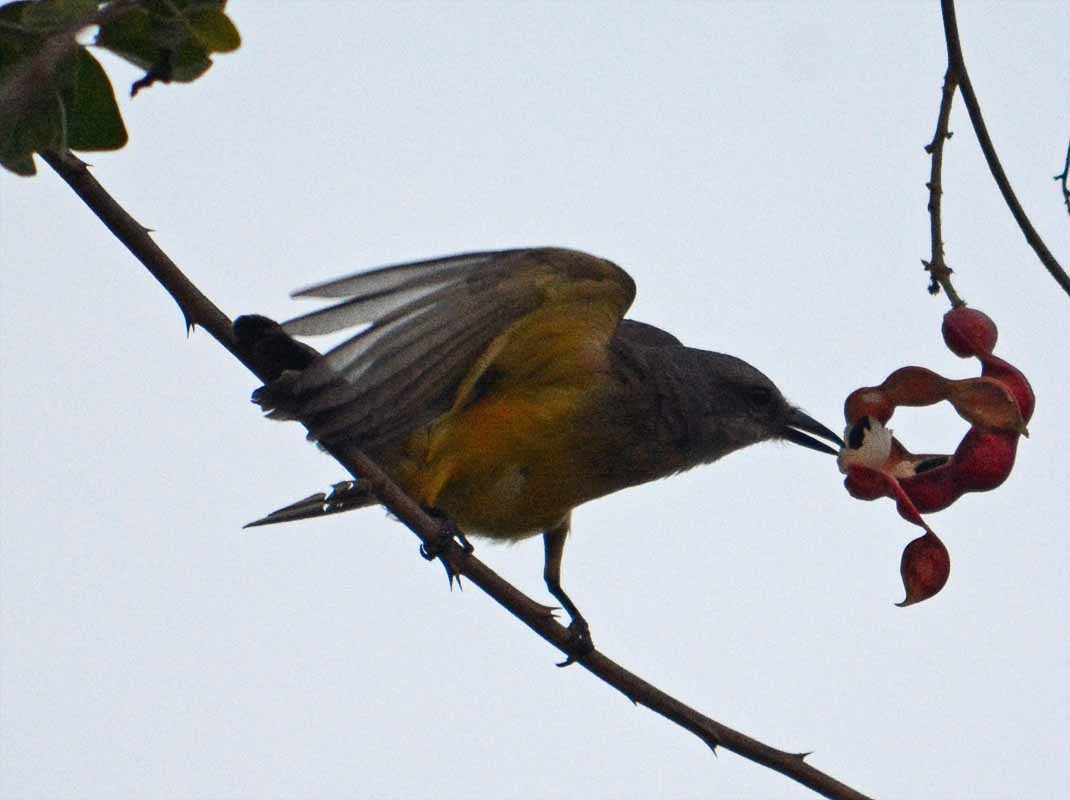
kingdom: Animalia
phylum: Chordata
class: Aves
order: Passeriformes
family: Tyrannidae
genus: Tyrannus
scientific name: Tyrannus melancholicus
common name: Tropical kingbird
